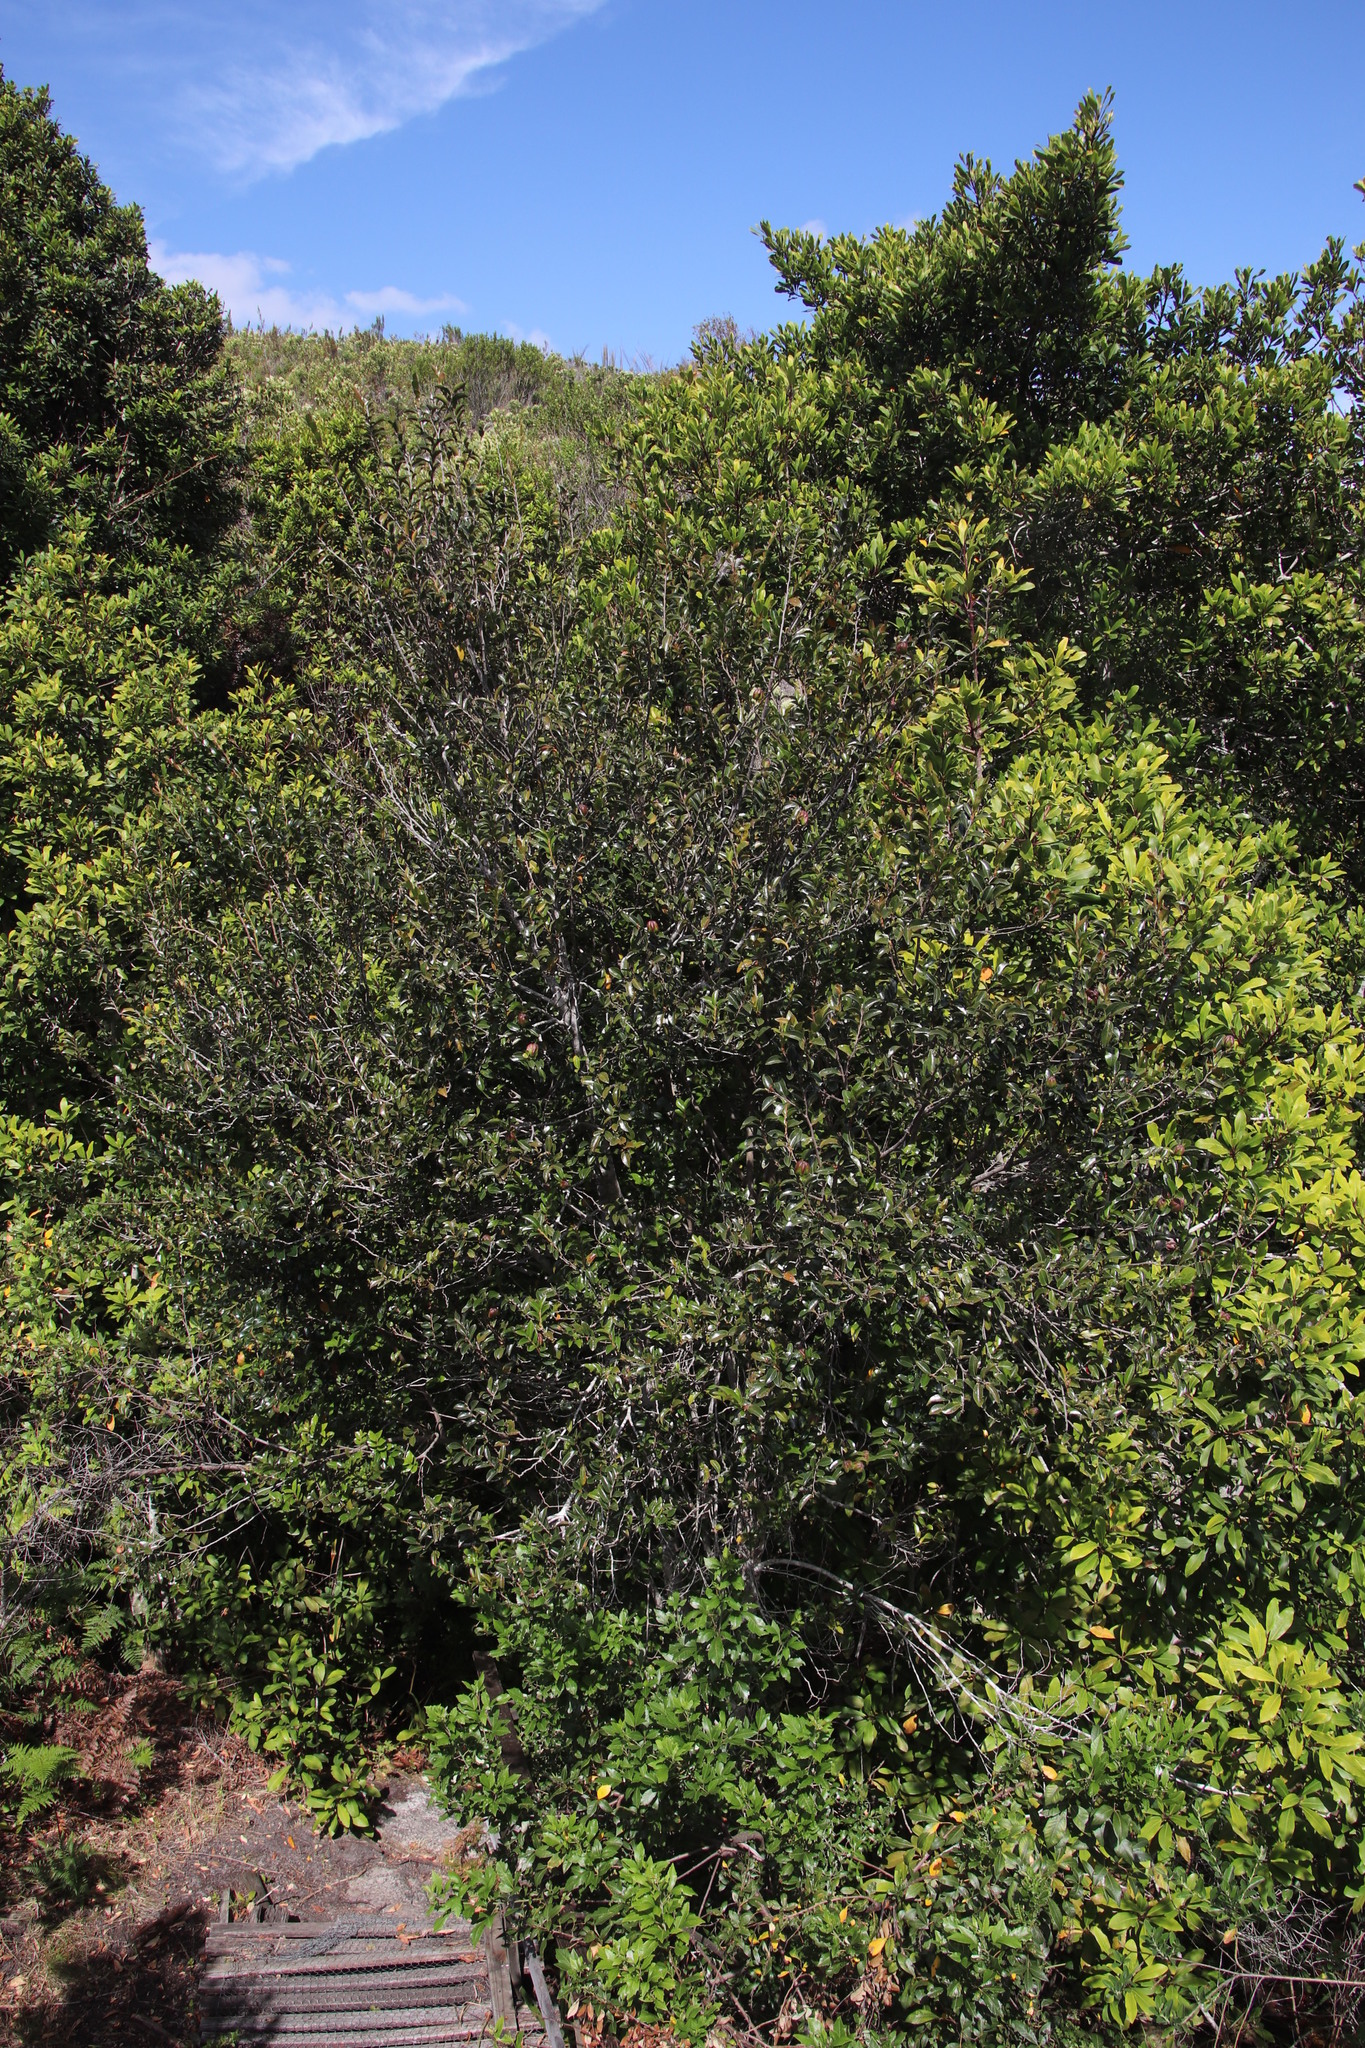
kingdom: Plantae
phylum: Tracheophyta
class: Magnoliopsida
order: Ericales
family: Ebenaceae
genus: Diospyros
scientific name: Diospyros whyteana
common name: Bladder-nut
